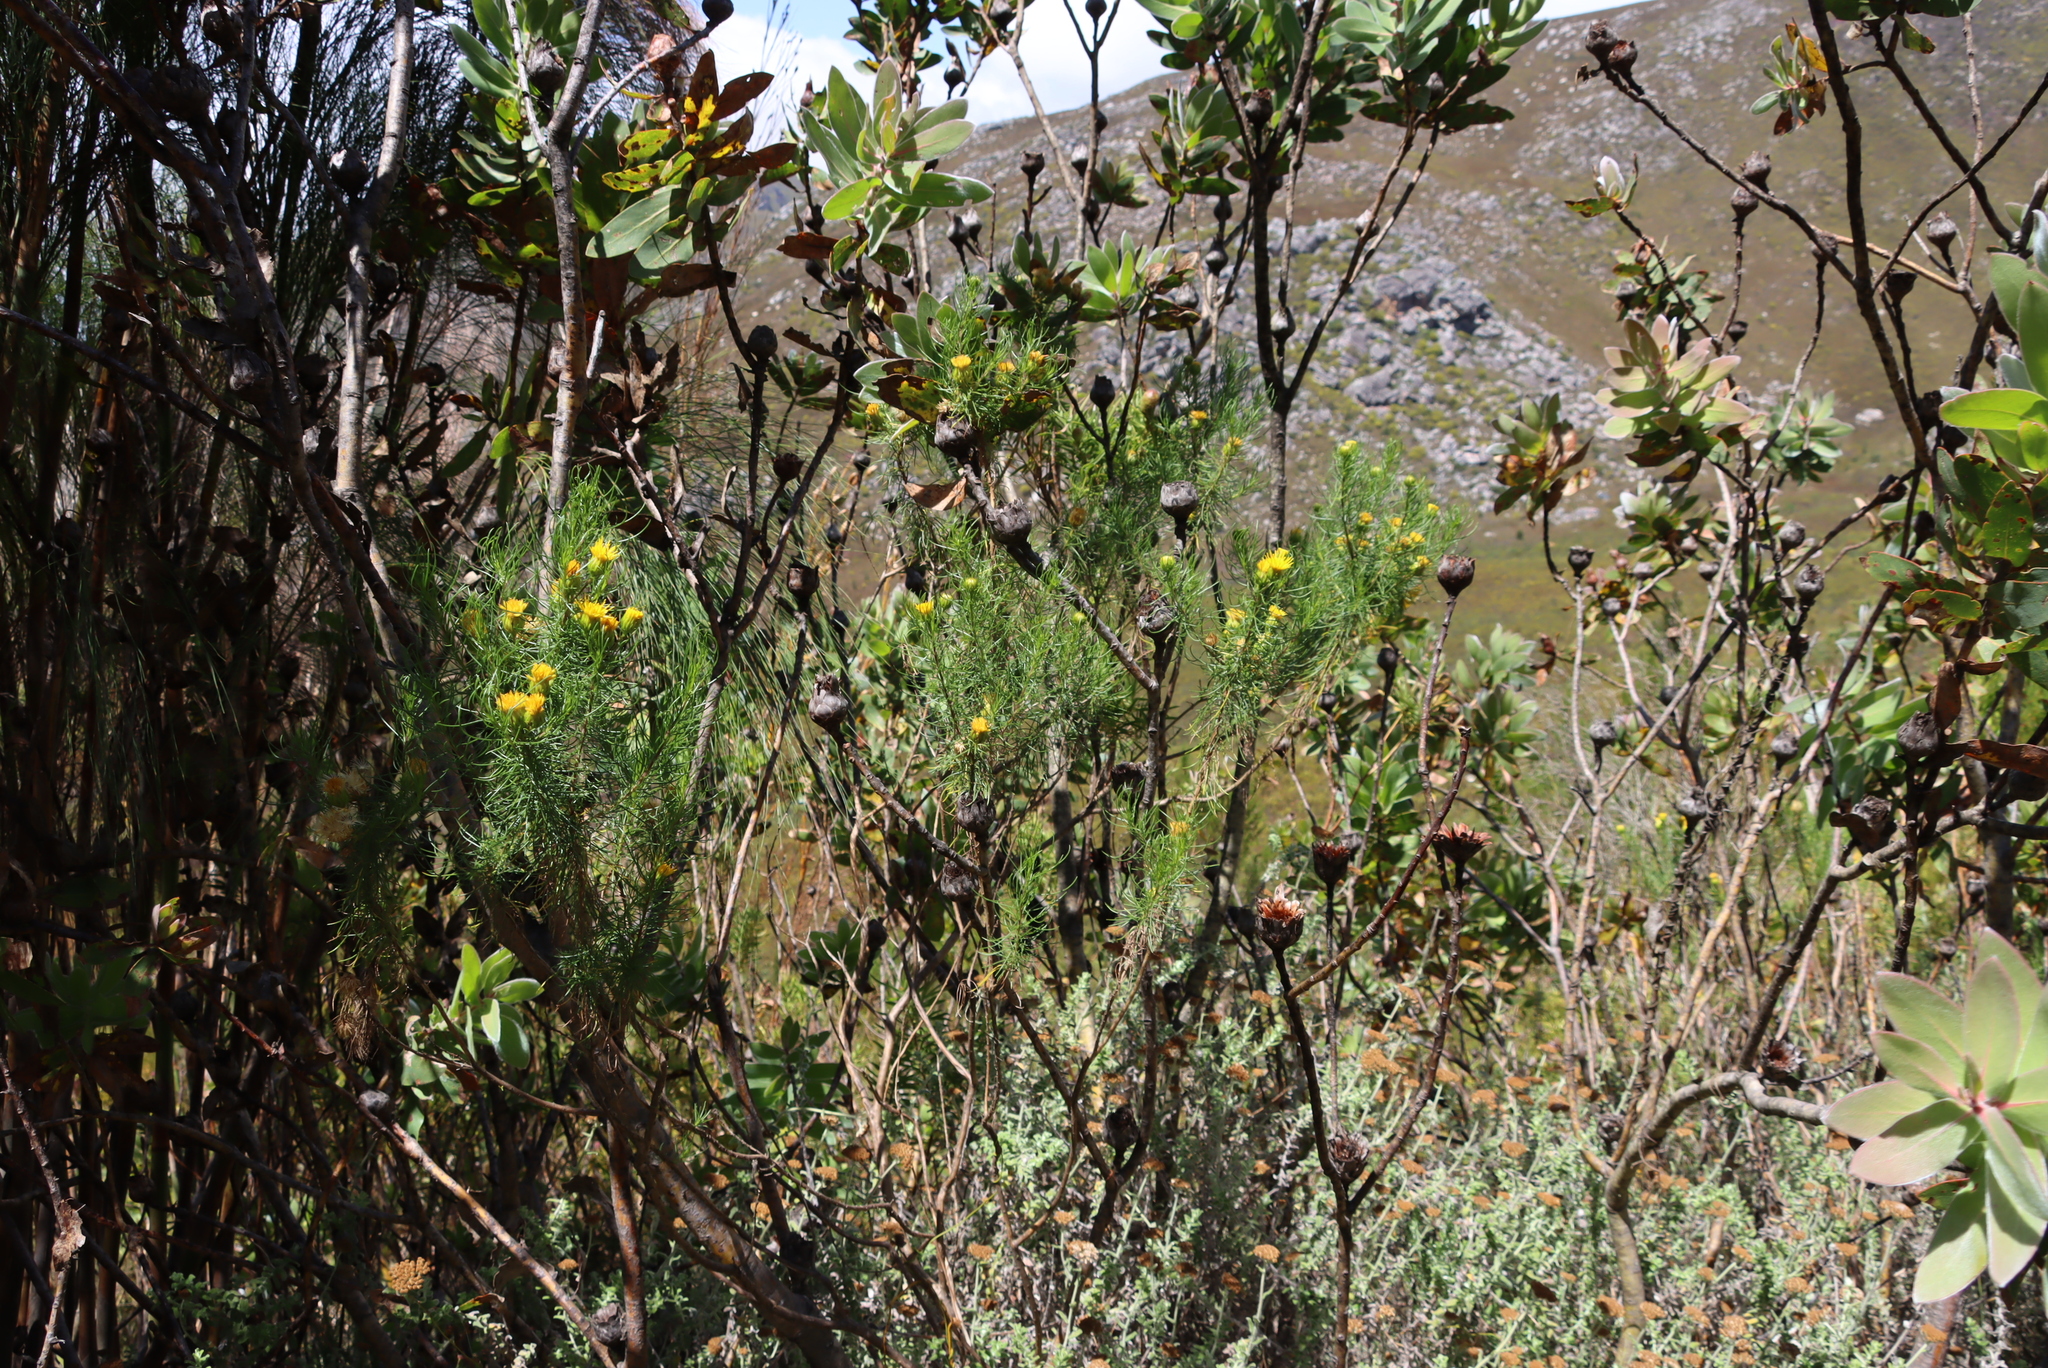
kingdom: Plantae
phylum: Tracheophyta
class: Magnoliopsida
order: Asterales
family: Asteraceae
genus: Pteronia
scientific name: Pteronia camphorata
